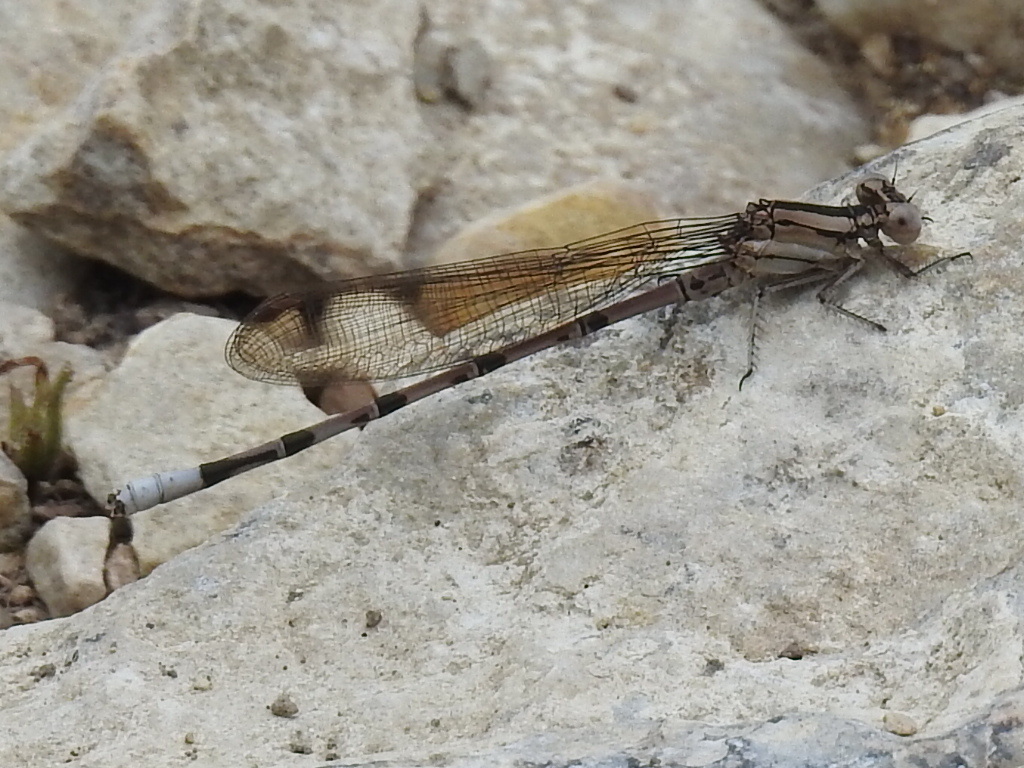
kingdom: Animalia
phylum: Arthropoda
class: Insecta
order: Odonata
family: Coenagrionidae
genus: Argia
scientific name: Argia funebris
